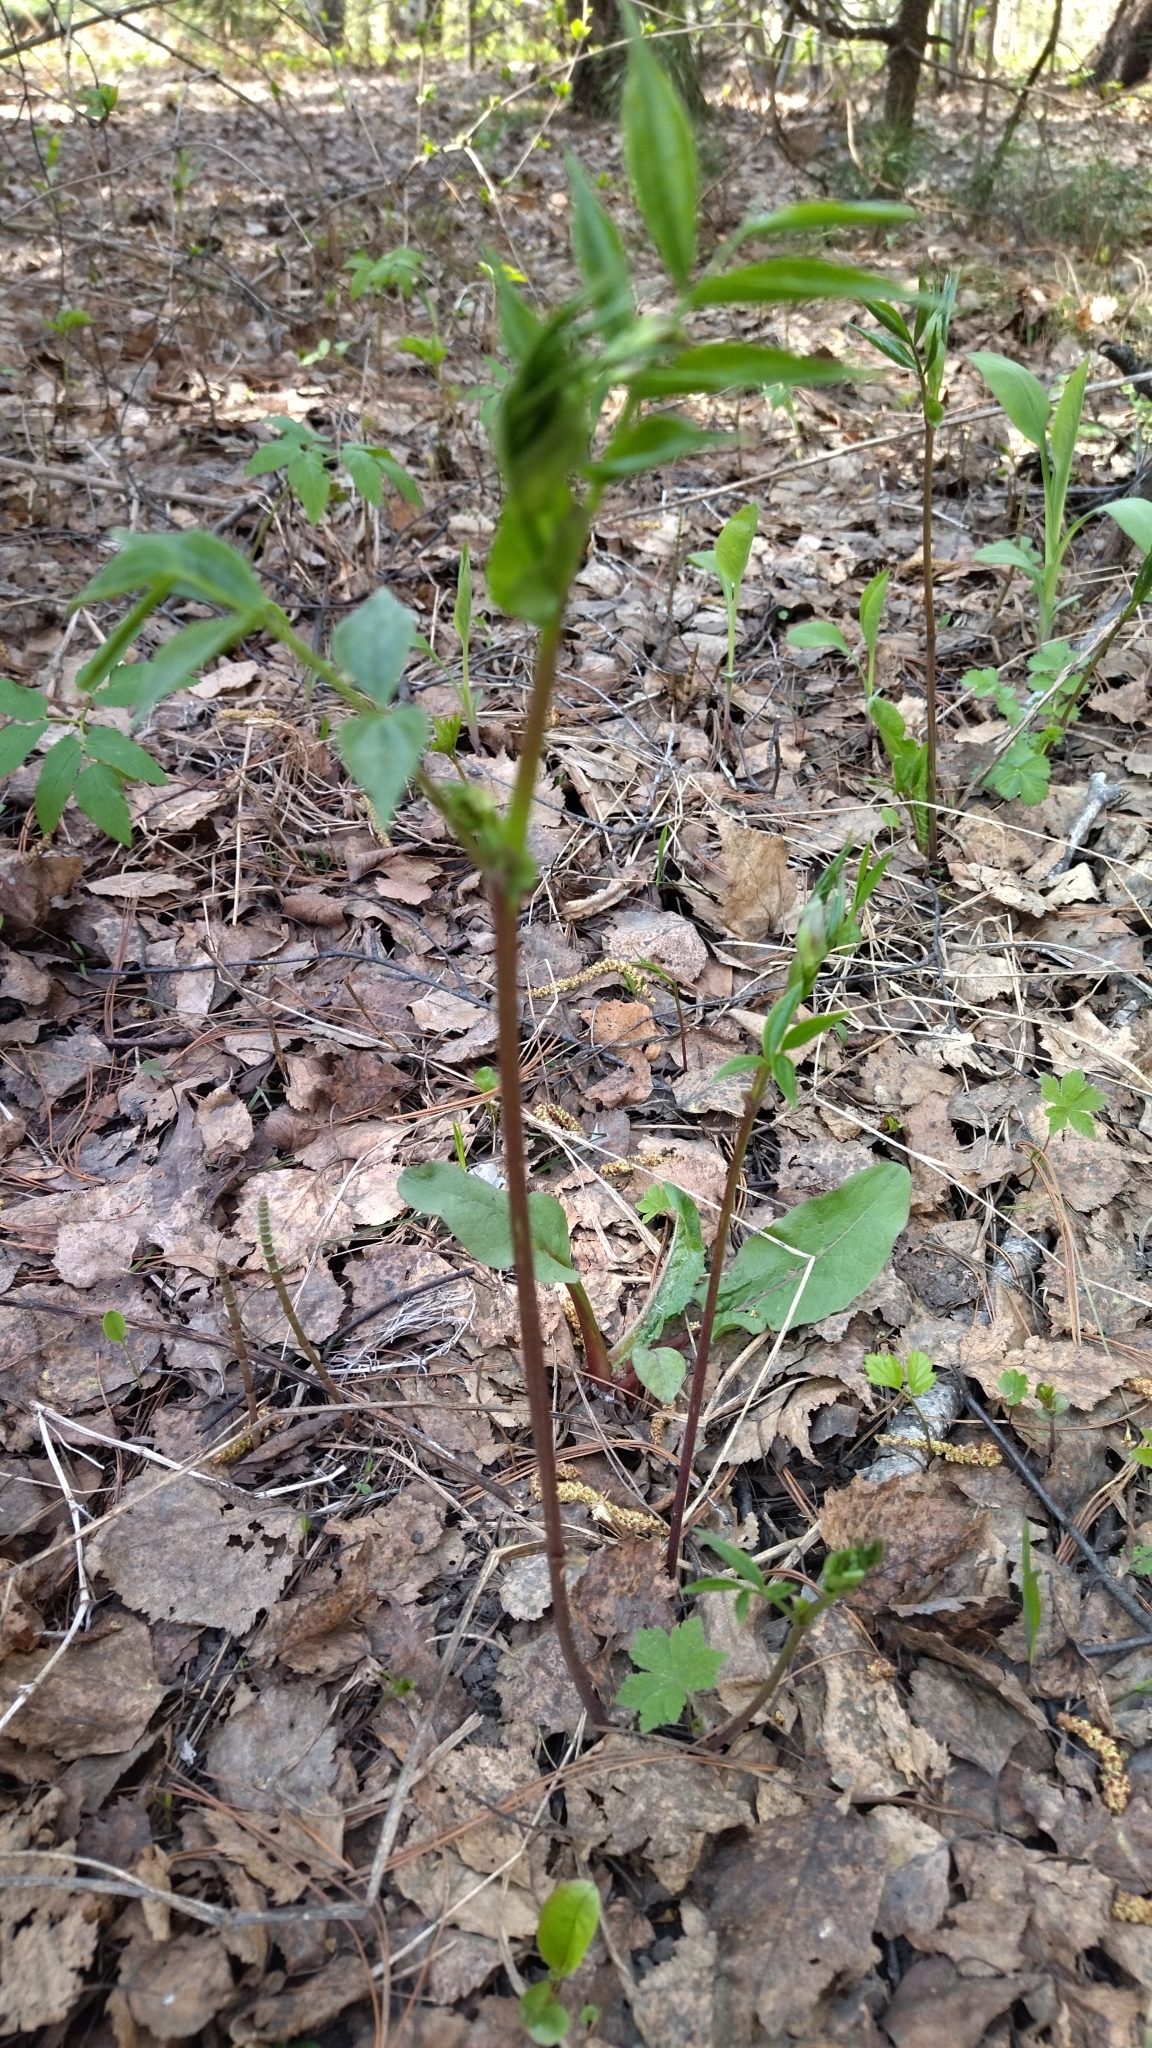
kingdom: Plantae
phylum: Tracheophyta
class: Magnoliopsida
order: Fabales
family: Fabaceae
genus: Lathyrus
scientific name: Lathyrus vernus
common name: Spring pea
